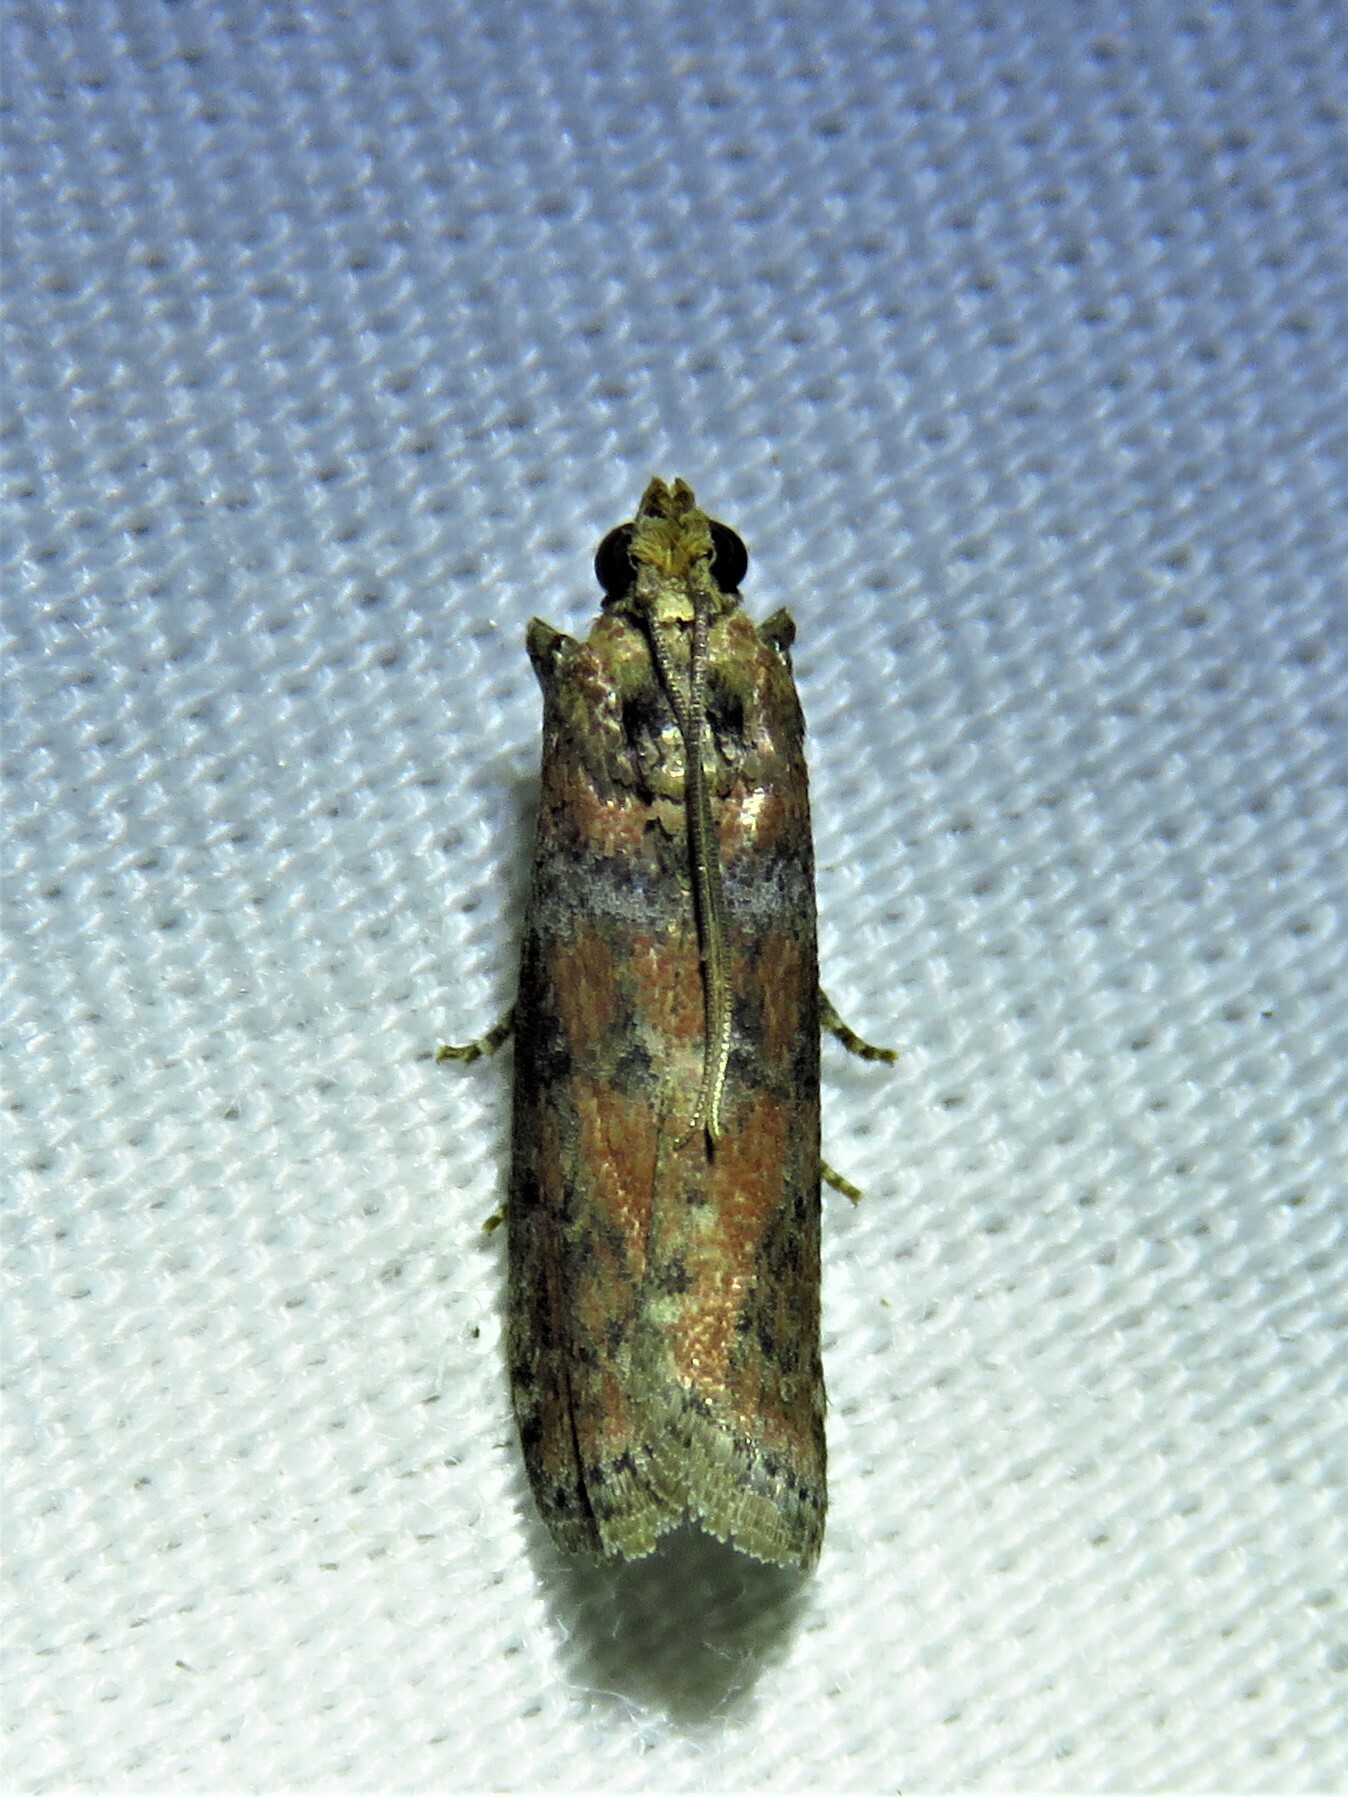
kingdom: Animalia
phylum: Arthropoda
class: Insecta
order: Lepidoptera
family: Pyralidae
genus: Sciota
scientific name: Sciota
